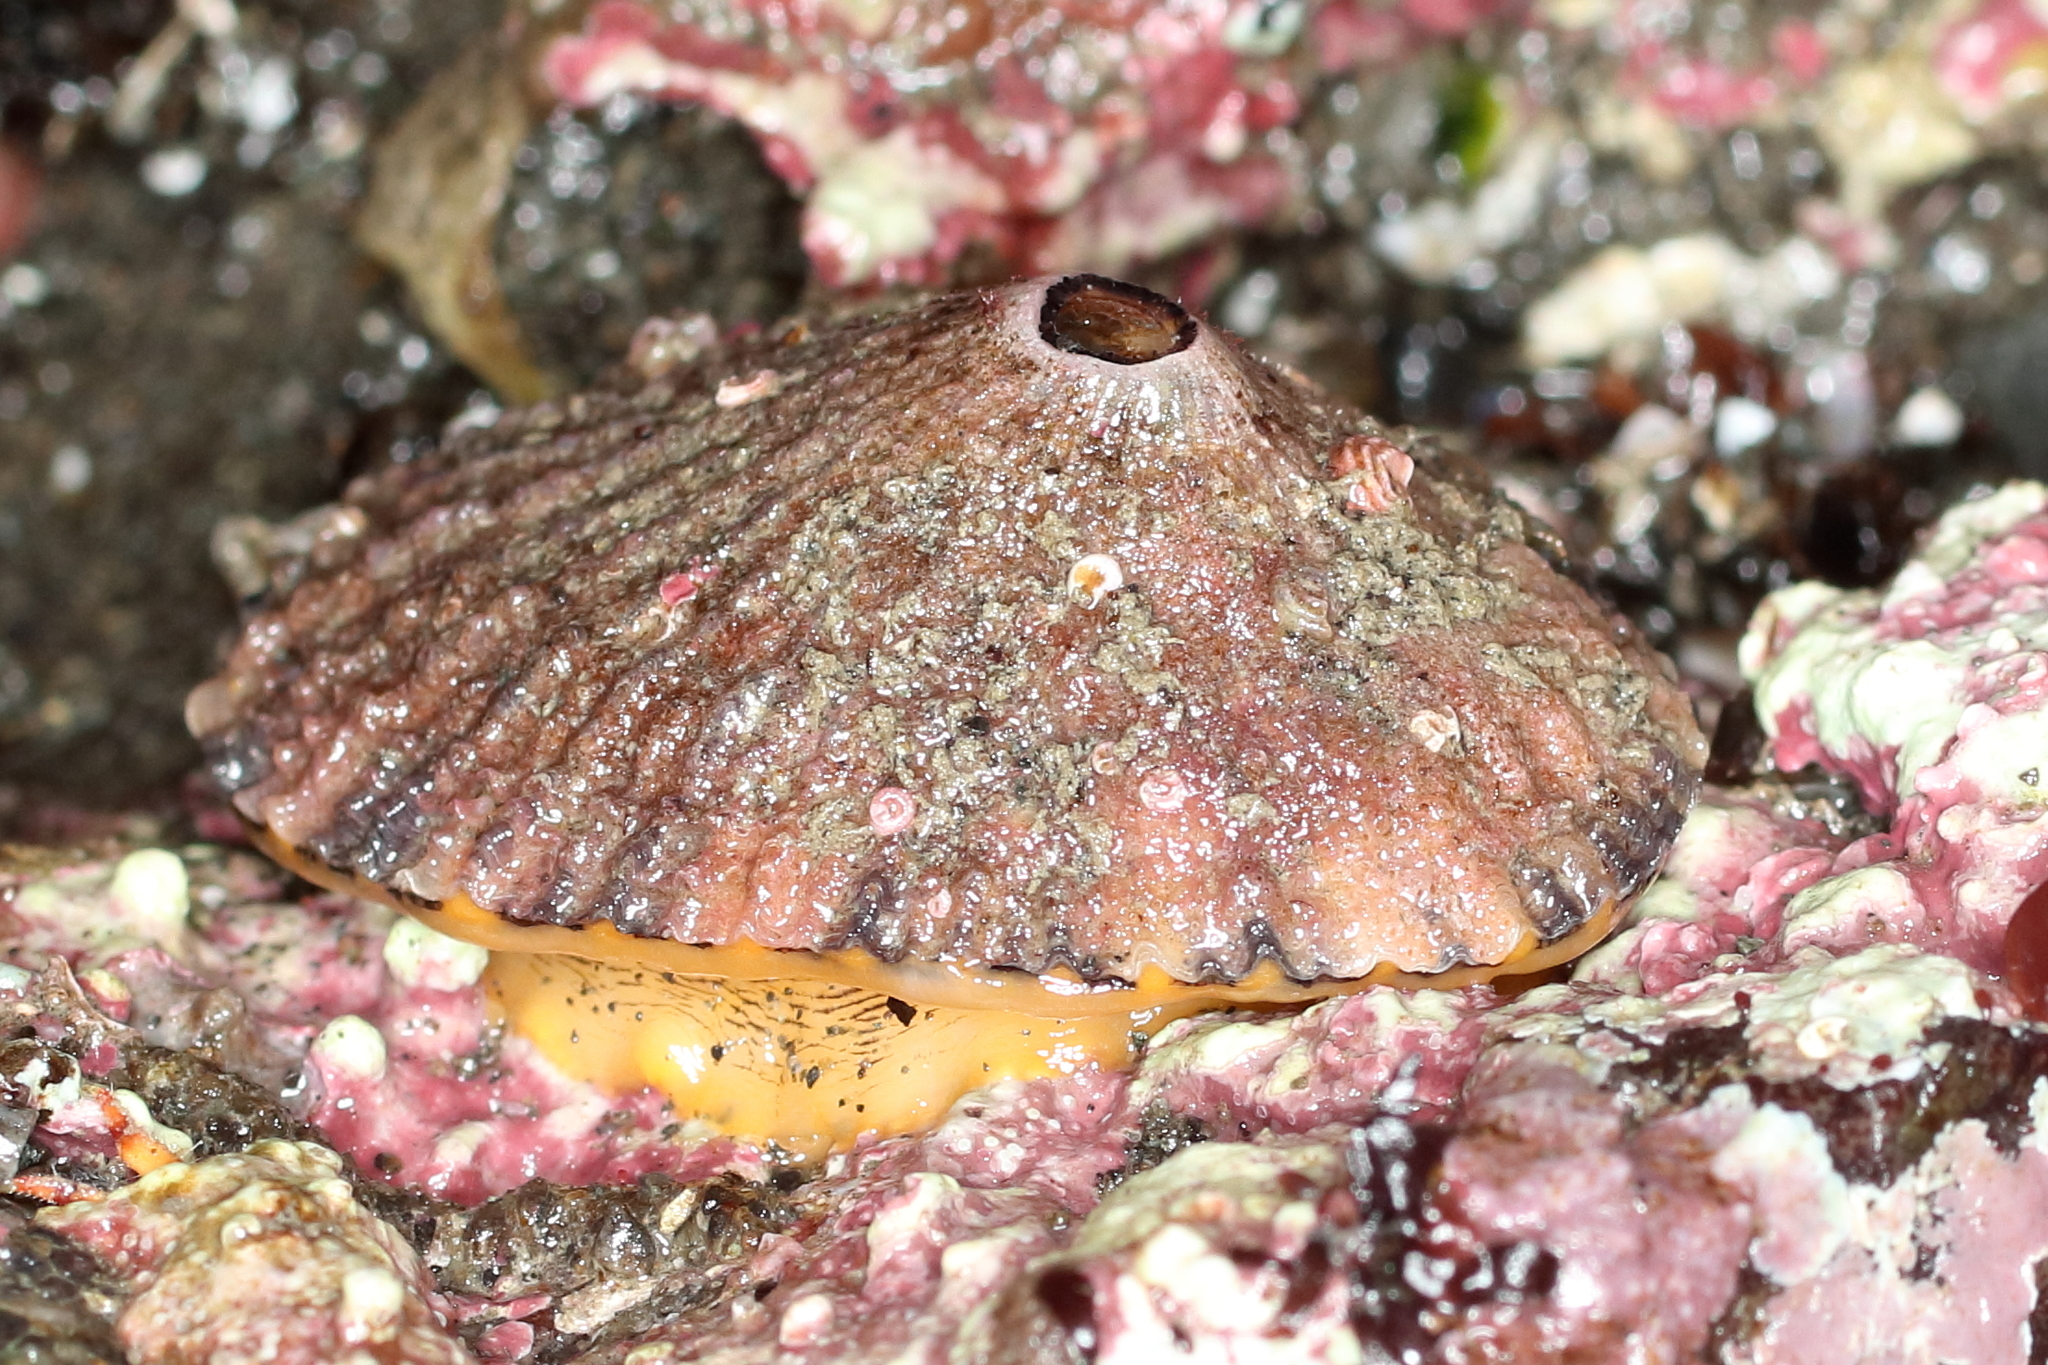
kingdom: Animalia
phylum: Mollusca
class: Gastropoda
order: Lepetellida
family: Fissurellidae
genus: Diodora
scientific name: Diodora aspera
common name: Rough keyhole limpet
